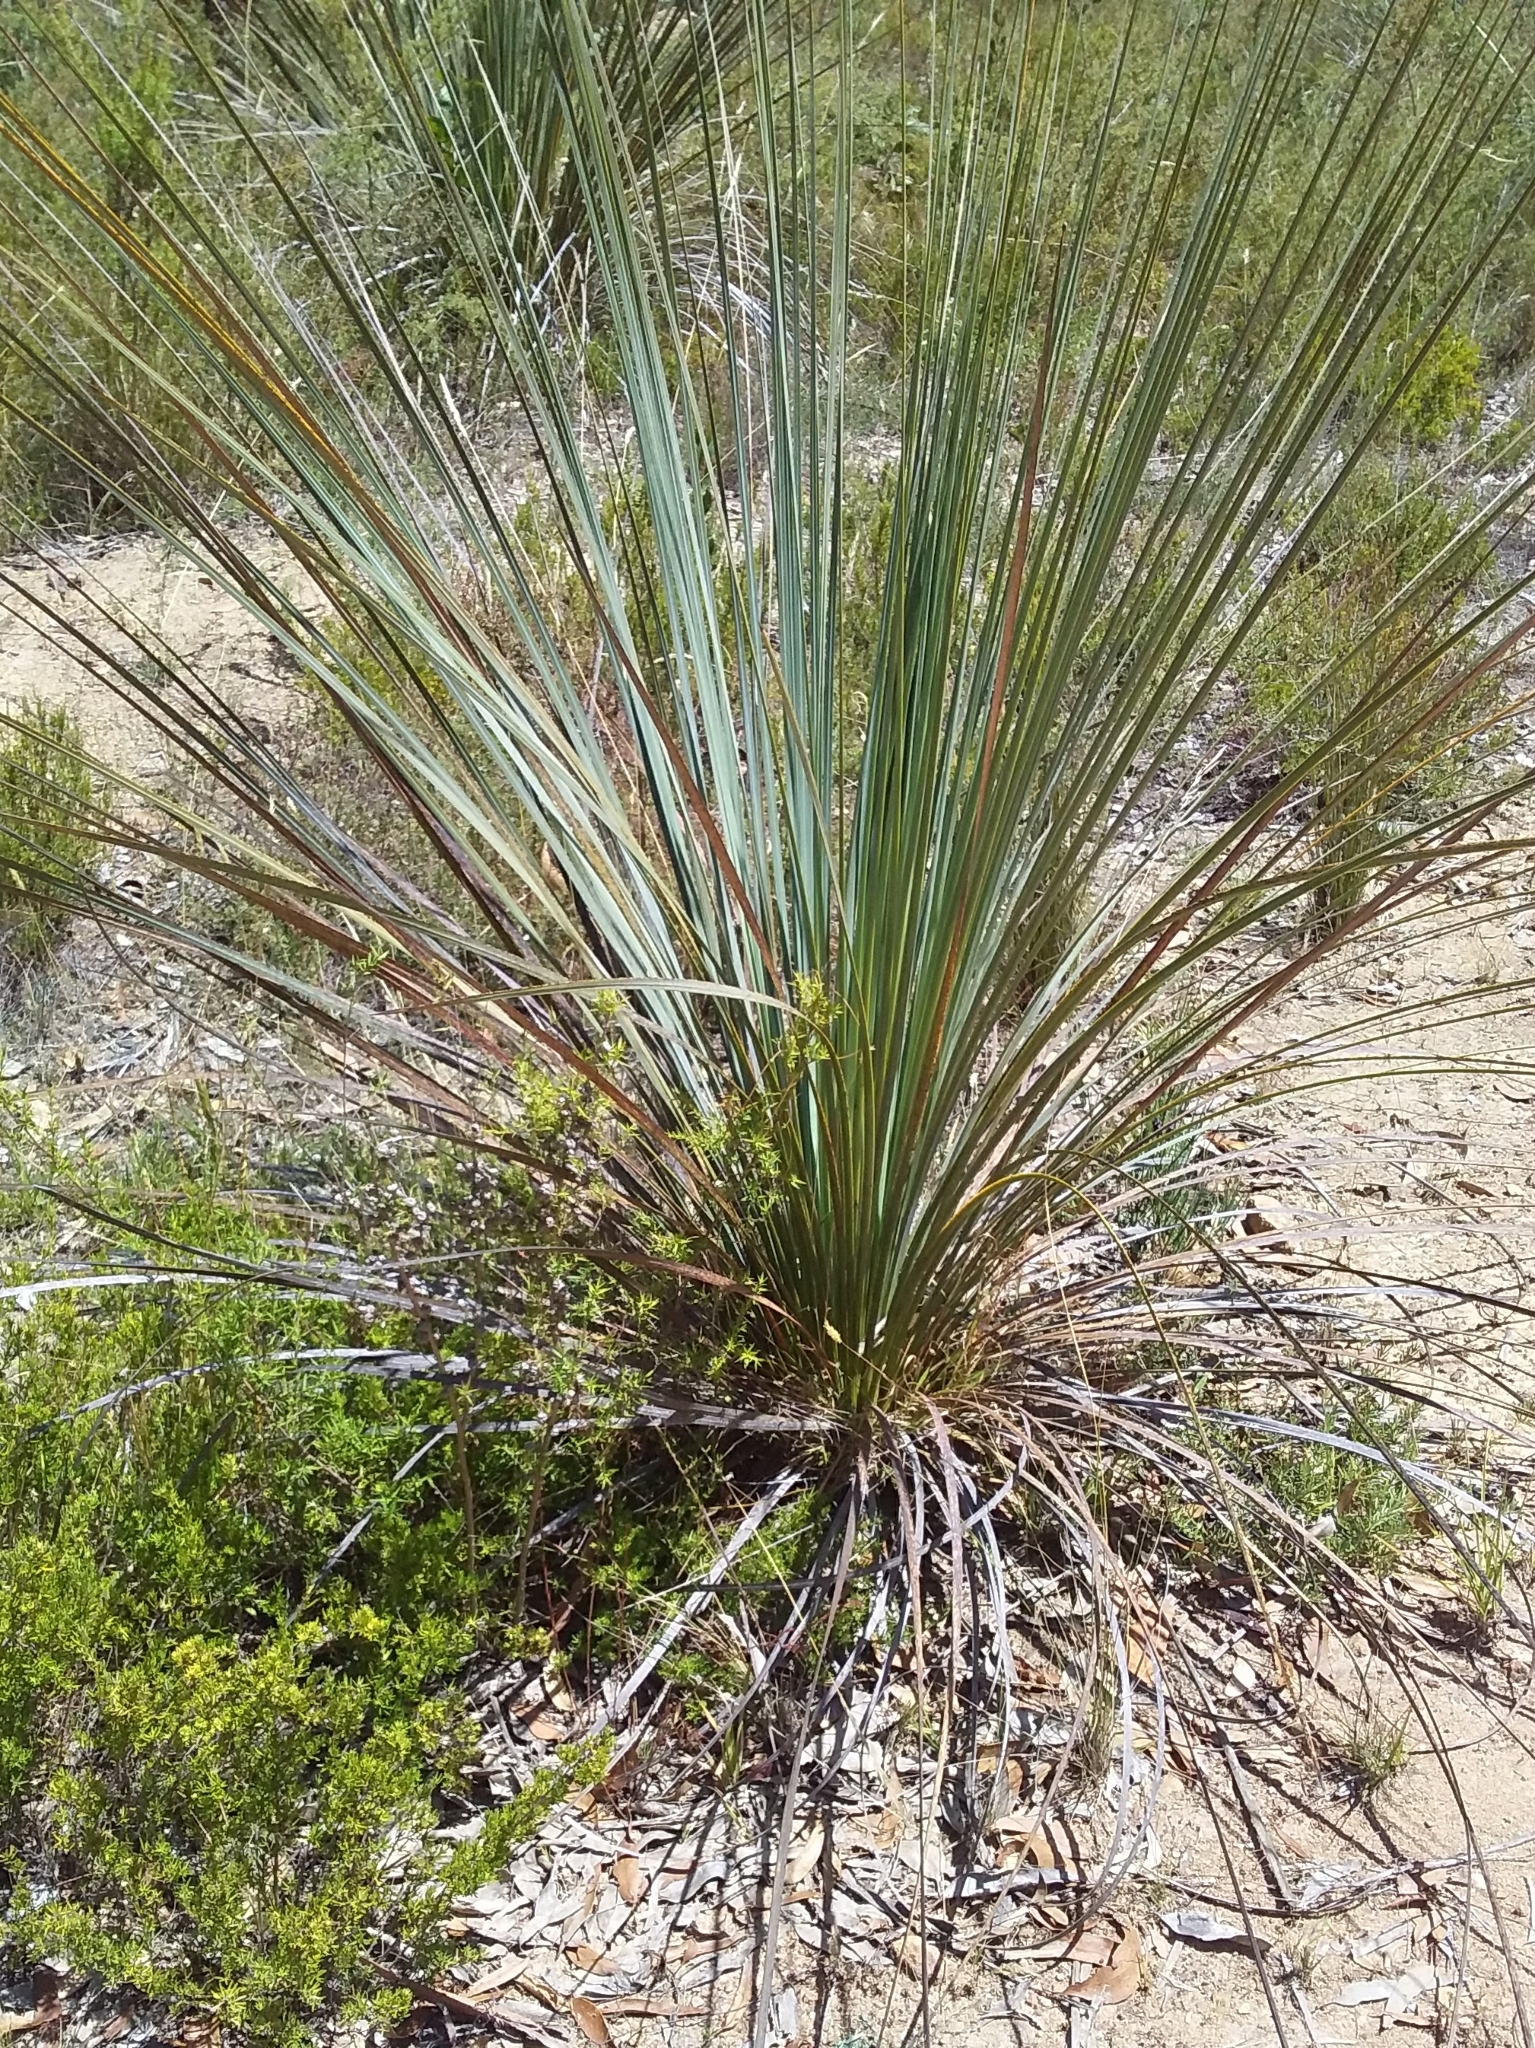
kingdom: Plantae
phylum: Tracheophyta
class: Liliopsida
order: Asparagales
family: Asphodelaceae
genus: Xanthorrhoea
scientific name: Xanthorrhoea semiplana
